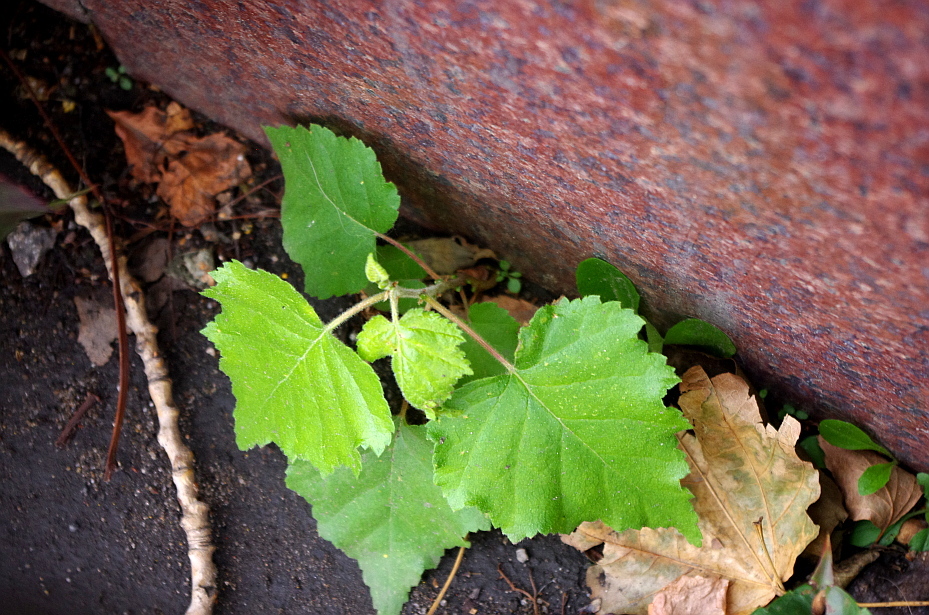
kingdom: Plantae
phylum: Tracheophyta
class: Magnoliopsida
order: Fagales
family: Betulaceae
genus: Betula
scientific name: Betula pubescens
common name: Downy birch
